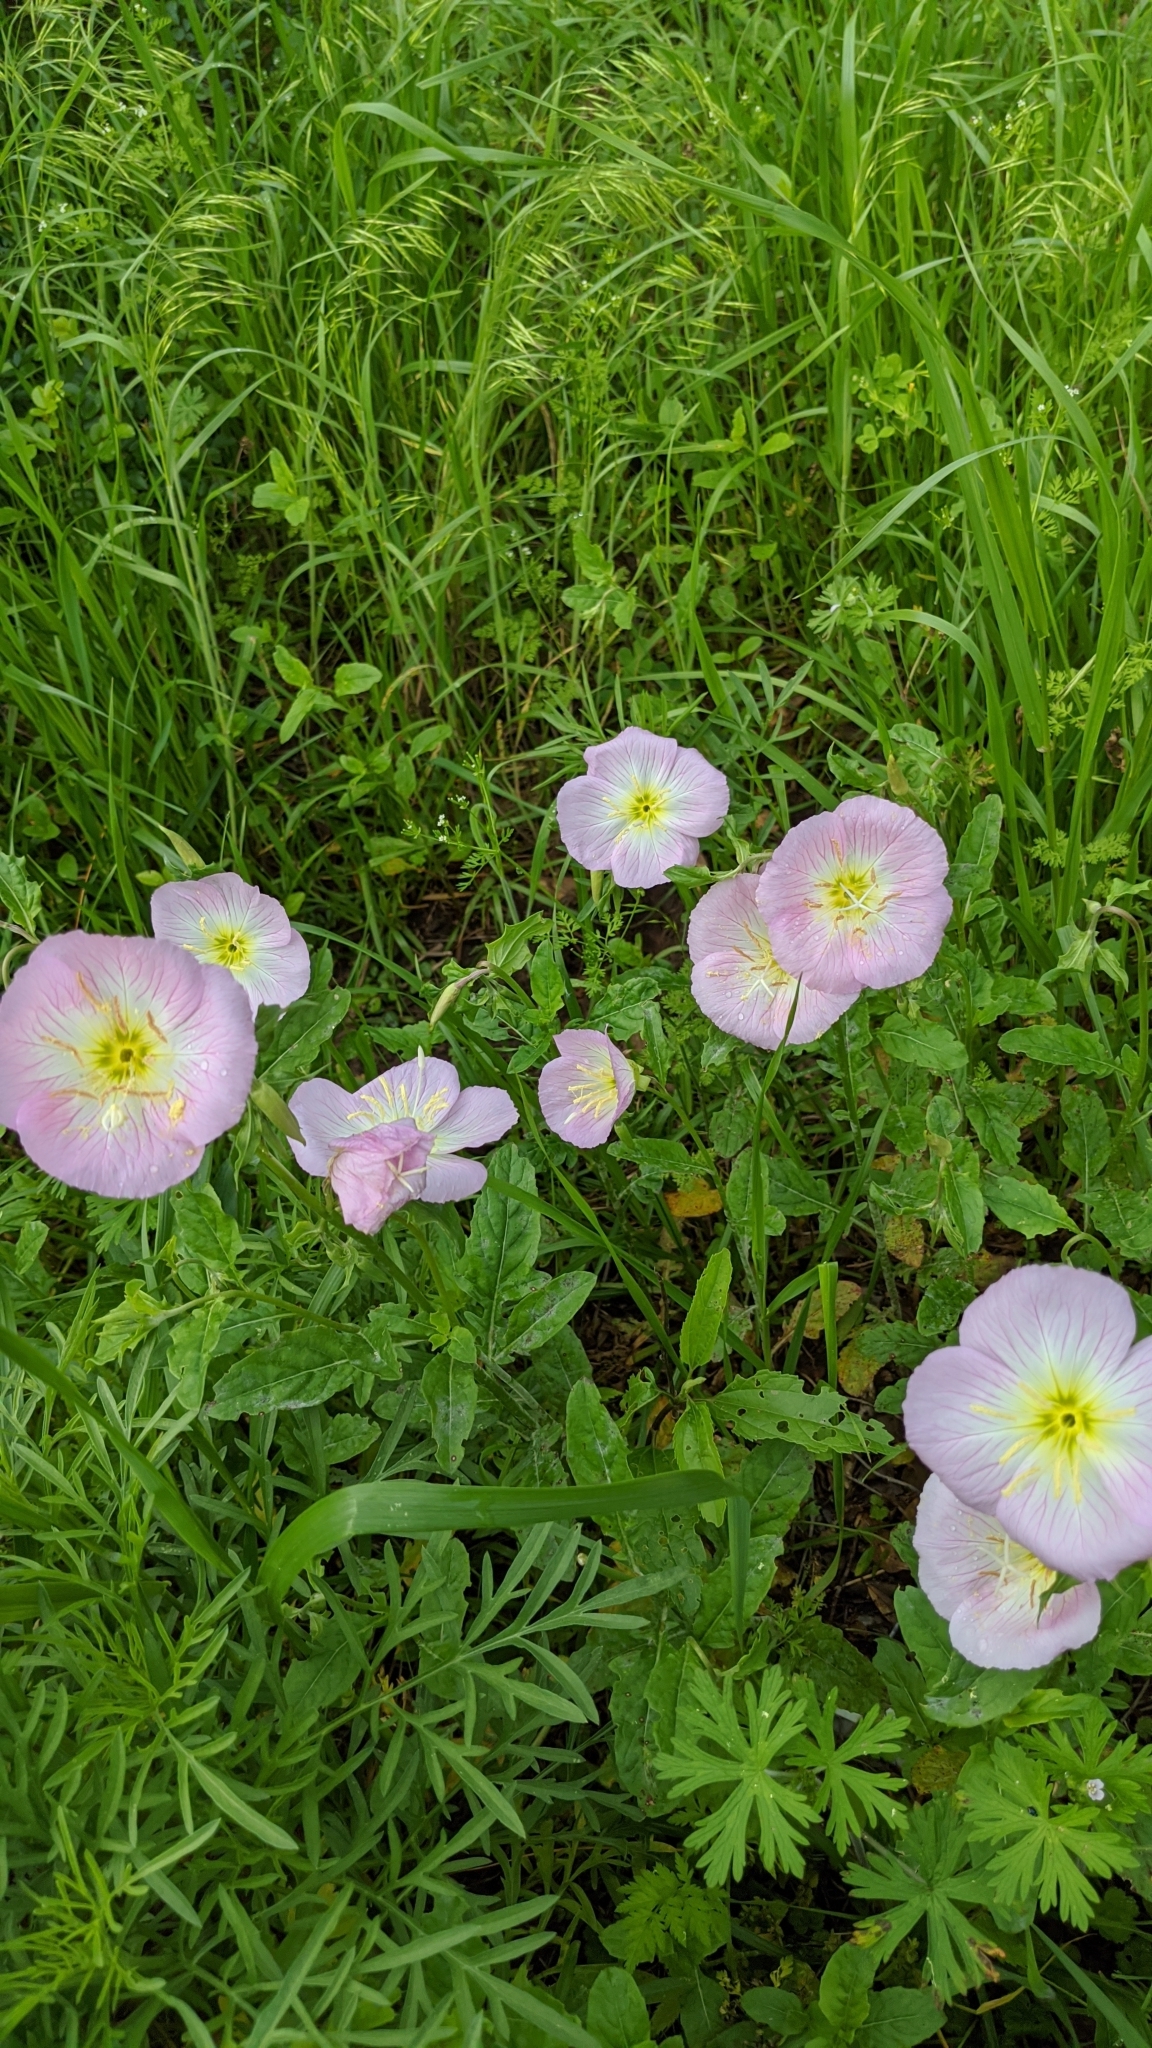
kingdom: Plantae
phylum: Tracheophyta
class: Magnoliopsida
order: Myrtales
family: Onagraceae
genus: Oenothera
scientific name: Oenothera speciosa
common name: White evening-primrose
